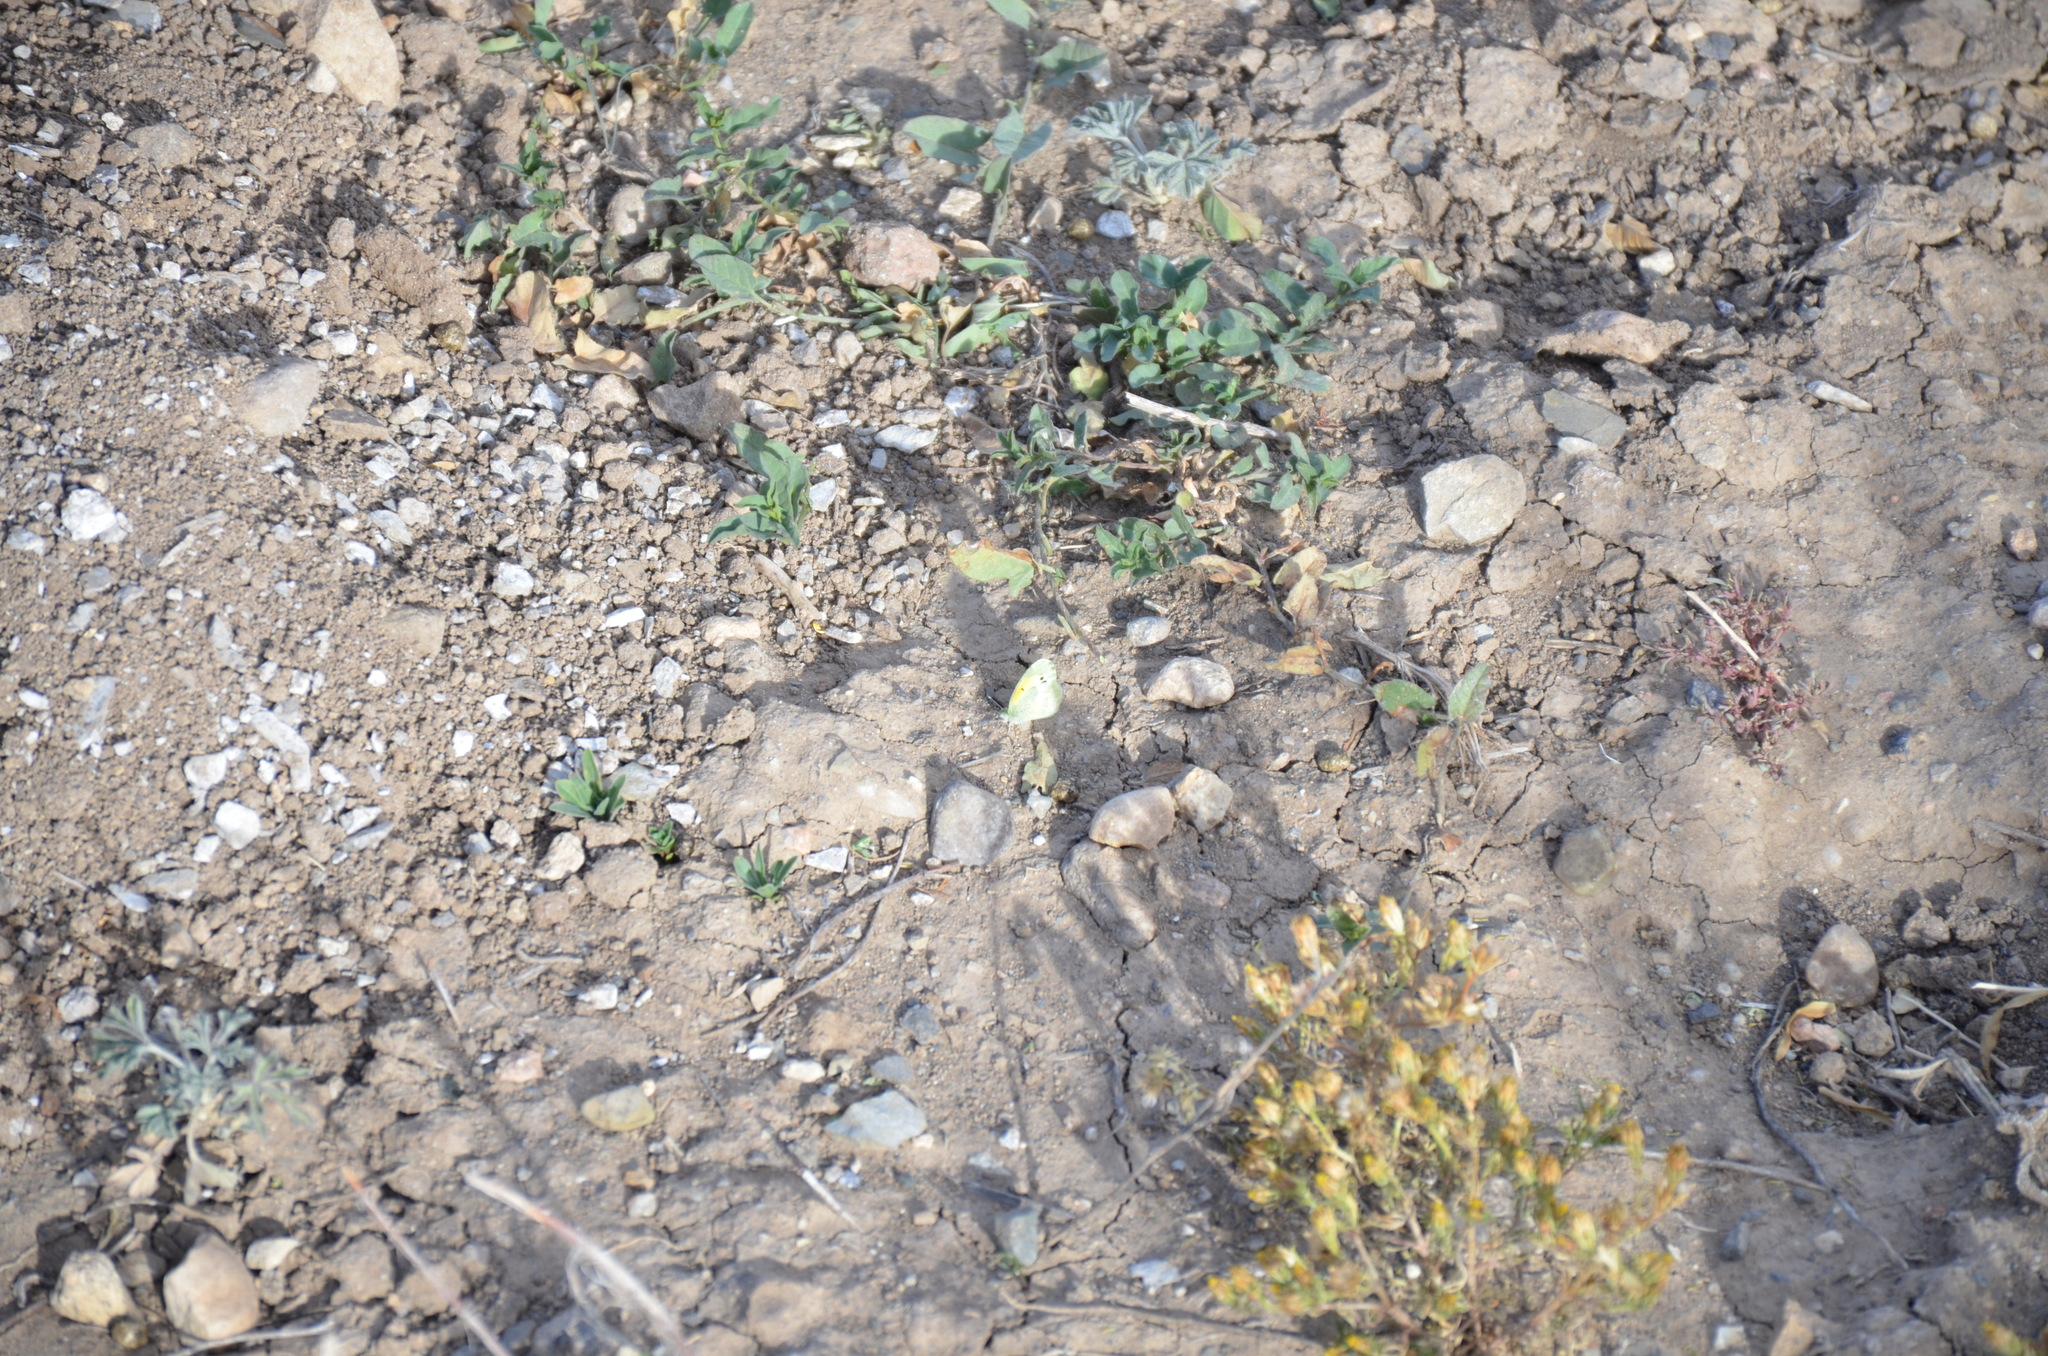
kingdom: Animalia
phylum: Arthropoda
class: Insecta
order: Lepidoptera
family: Pieridae
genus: Nathalis
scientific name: Nathalis iole
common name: Dainty sulphur
